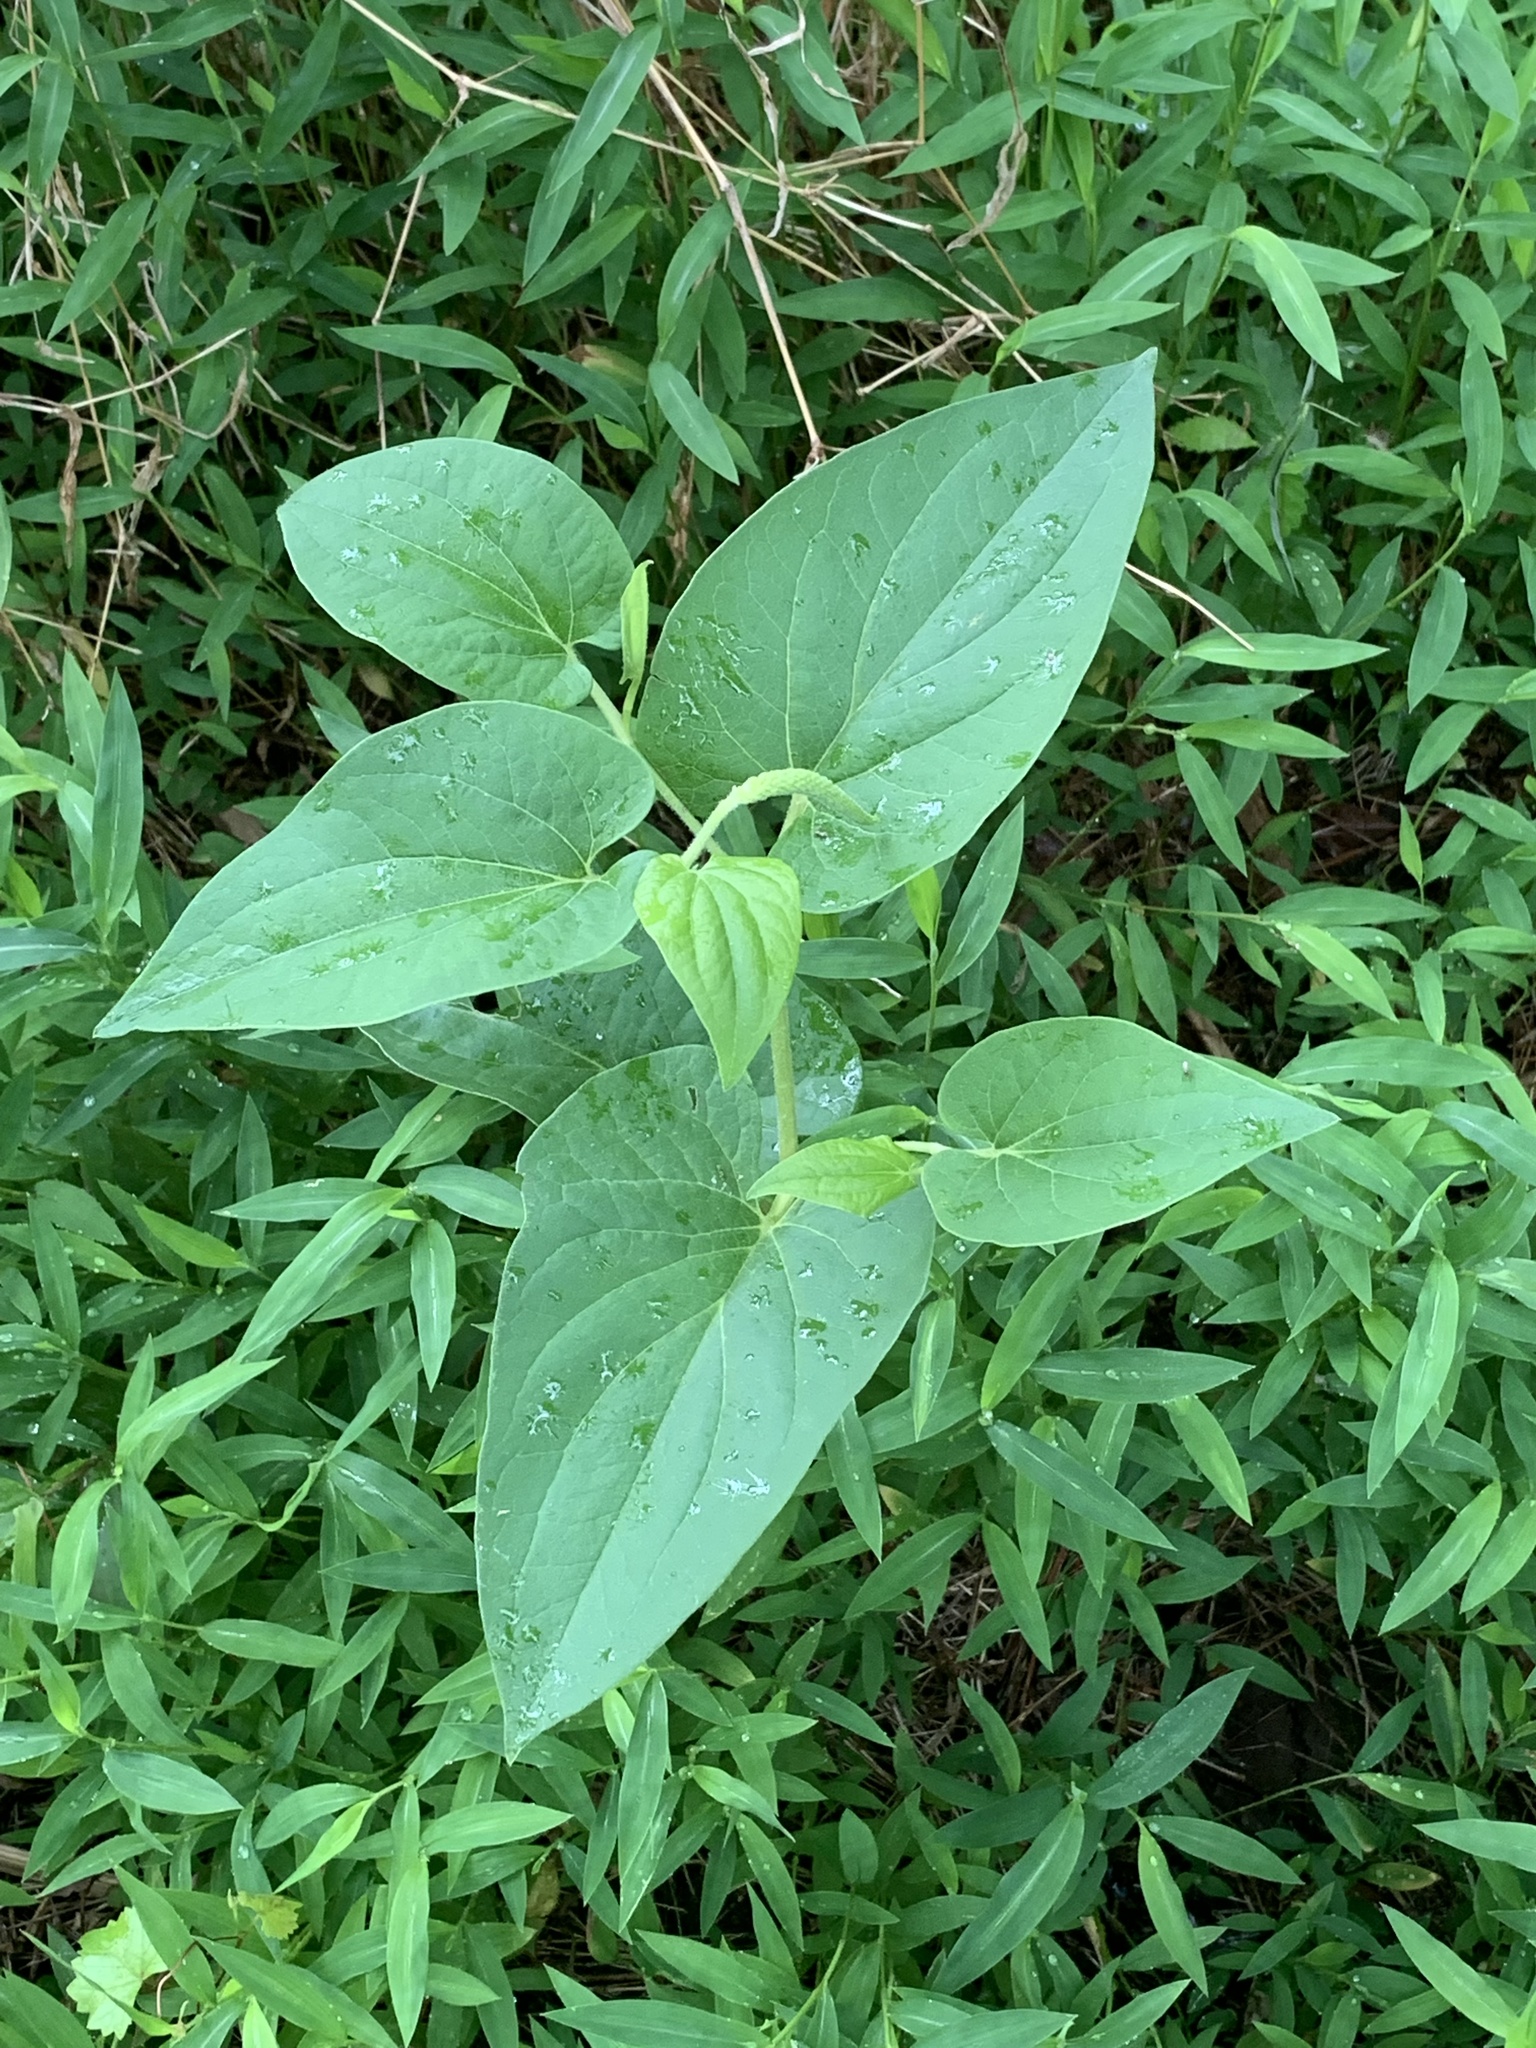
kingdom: Plantae
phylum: Tracheophyta
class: Magnoliopsida
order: Piperales
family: Saururaceae
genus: Saururus
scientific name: Saururus cernuus
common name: Lizard's-tail
